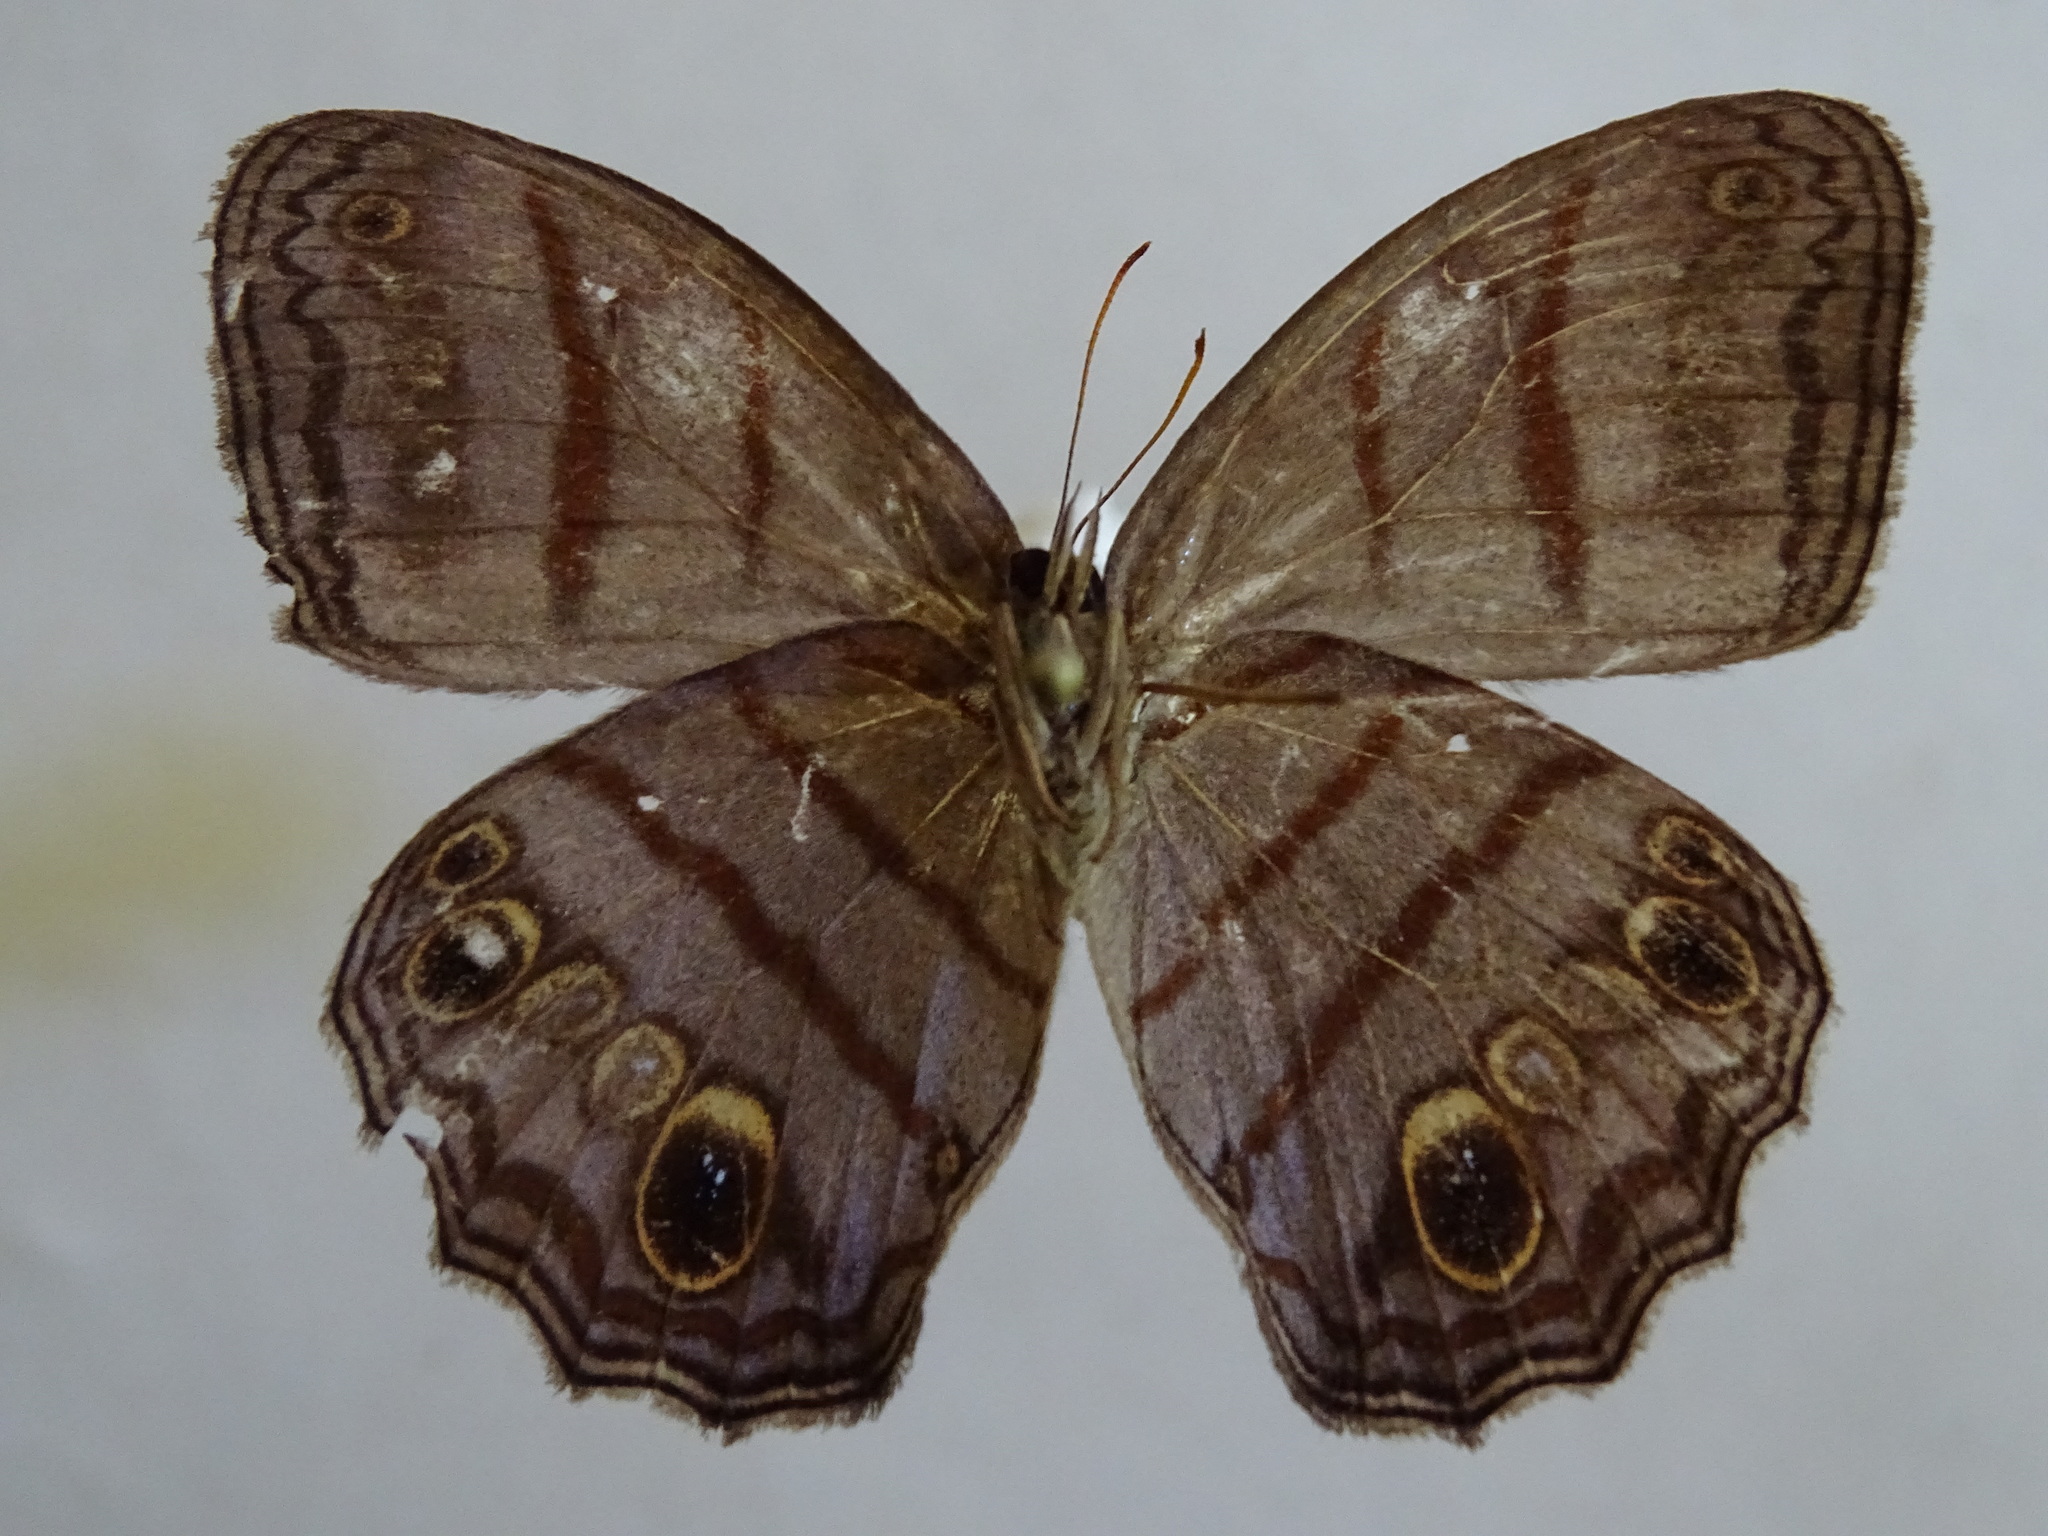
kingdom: Animalia
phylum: Arthropoda
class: Insecta
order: Lepidoptera
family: Nymphalidae
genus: Magneuptychia
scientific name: Magneuptychia libye
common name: Blue-gray satyr
